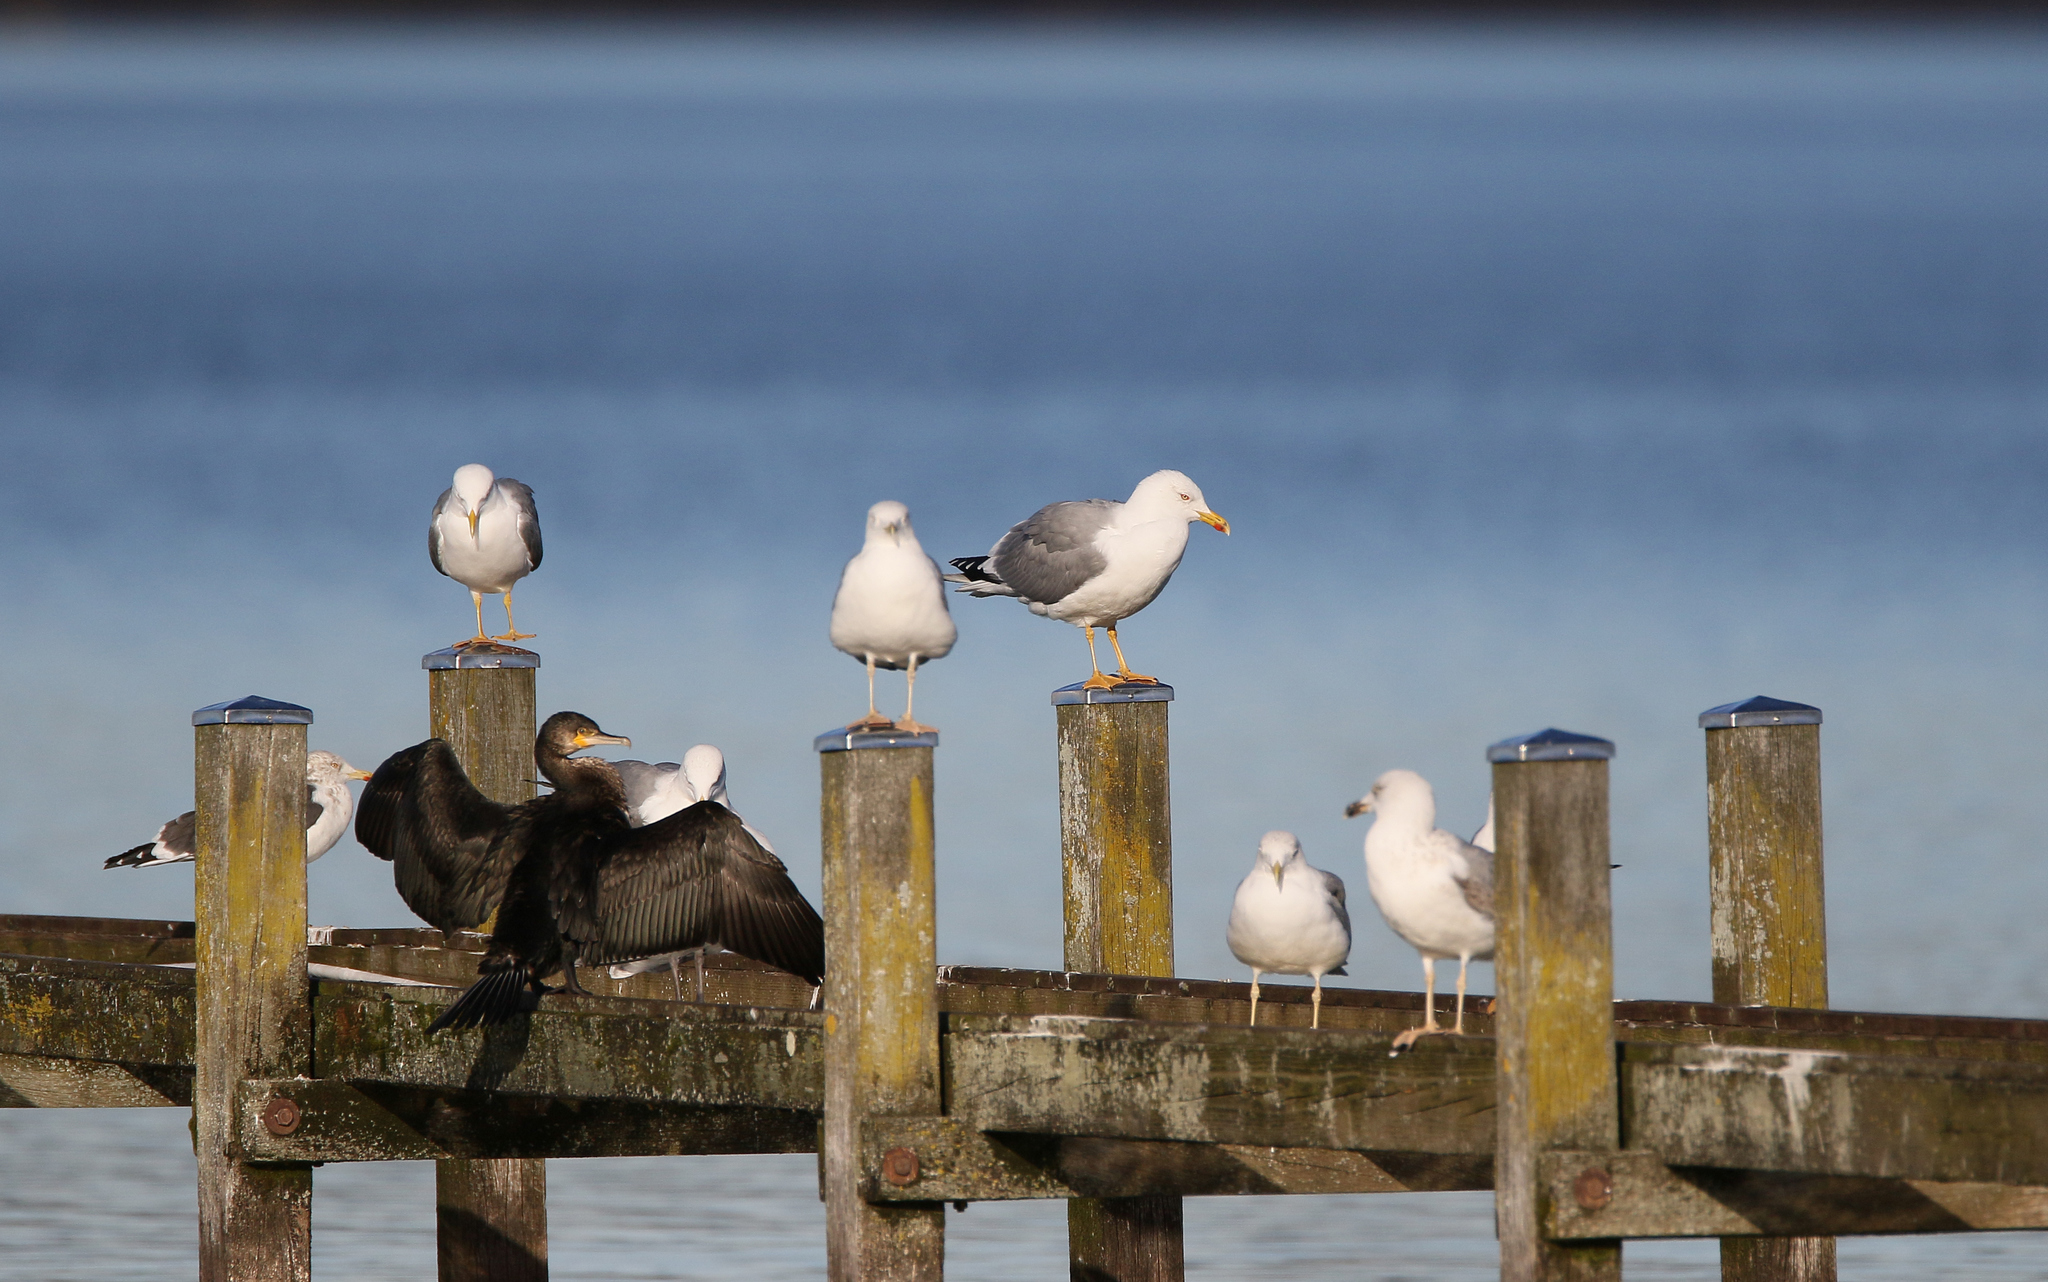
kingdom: Animalia
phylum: Chordata
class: Aves
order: Charadriiformes
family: Laridae
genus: Larus
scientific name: Larus michahellis
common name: Yellow-legged gull
